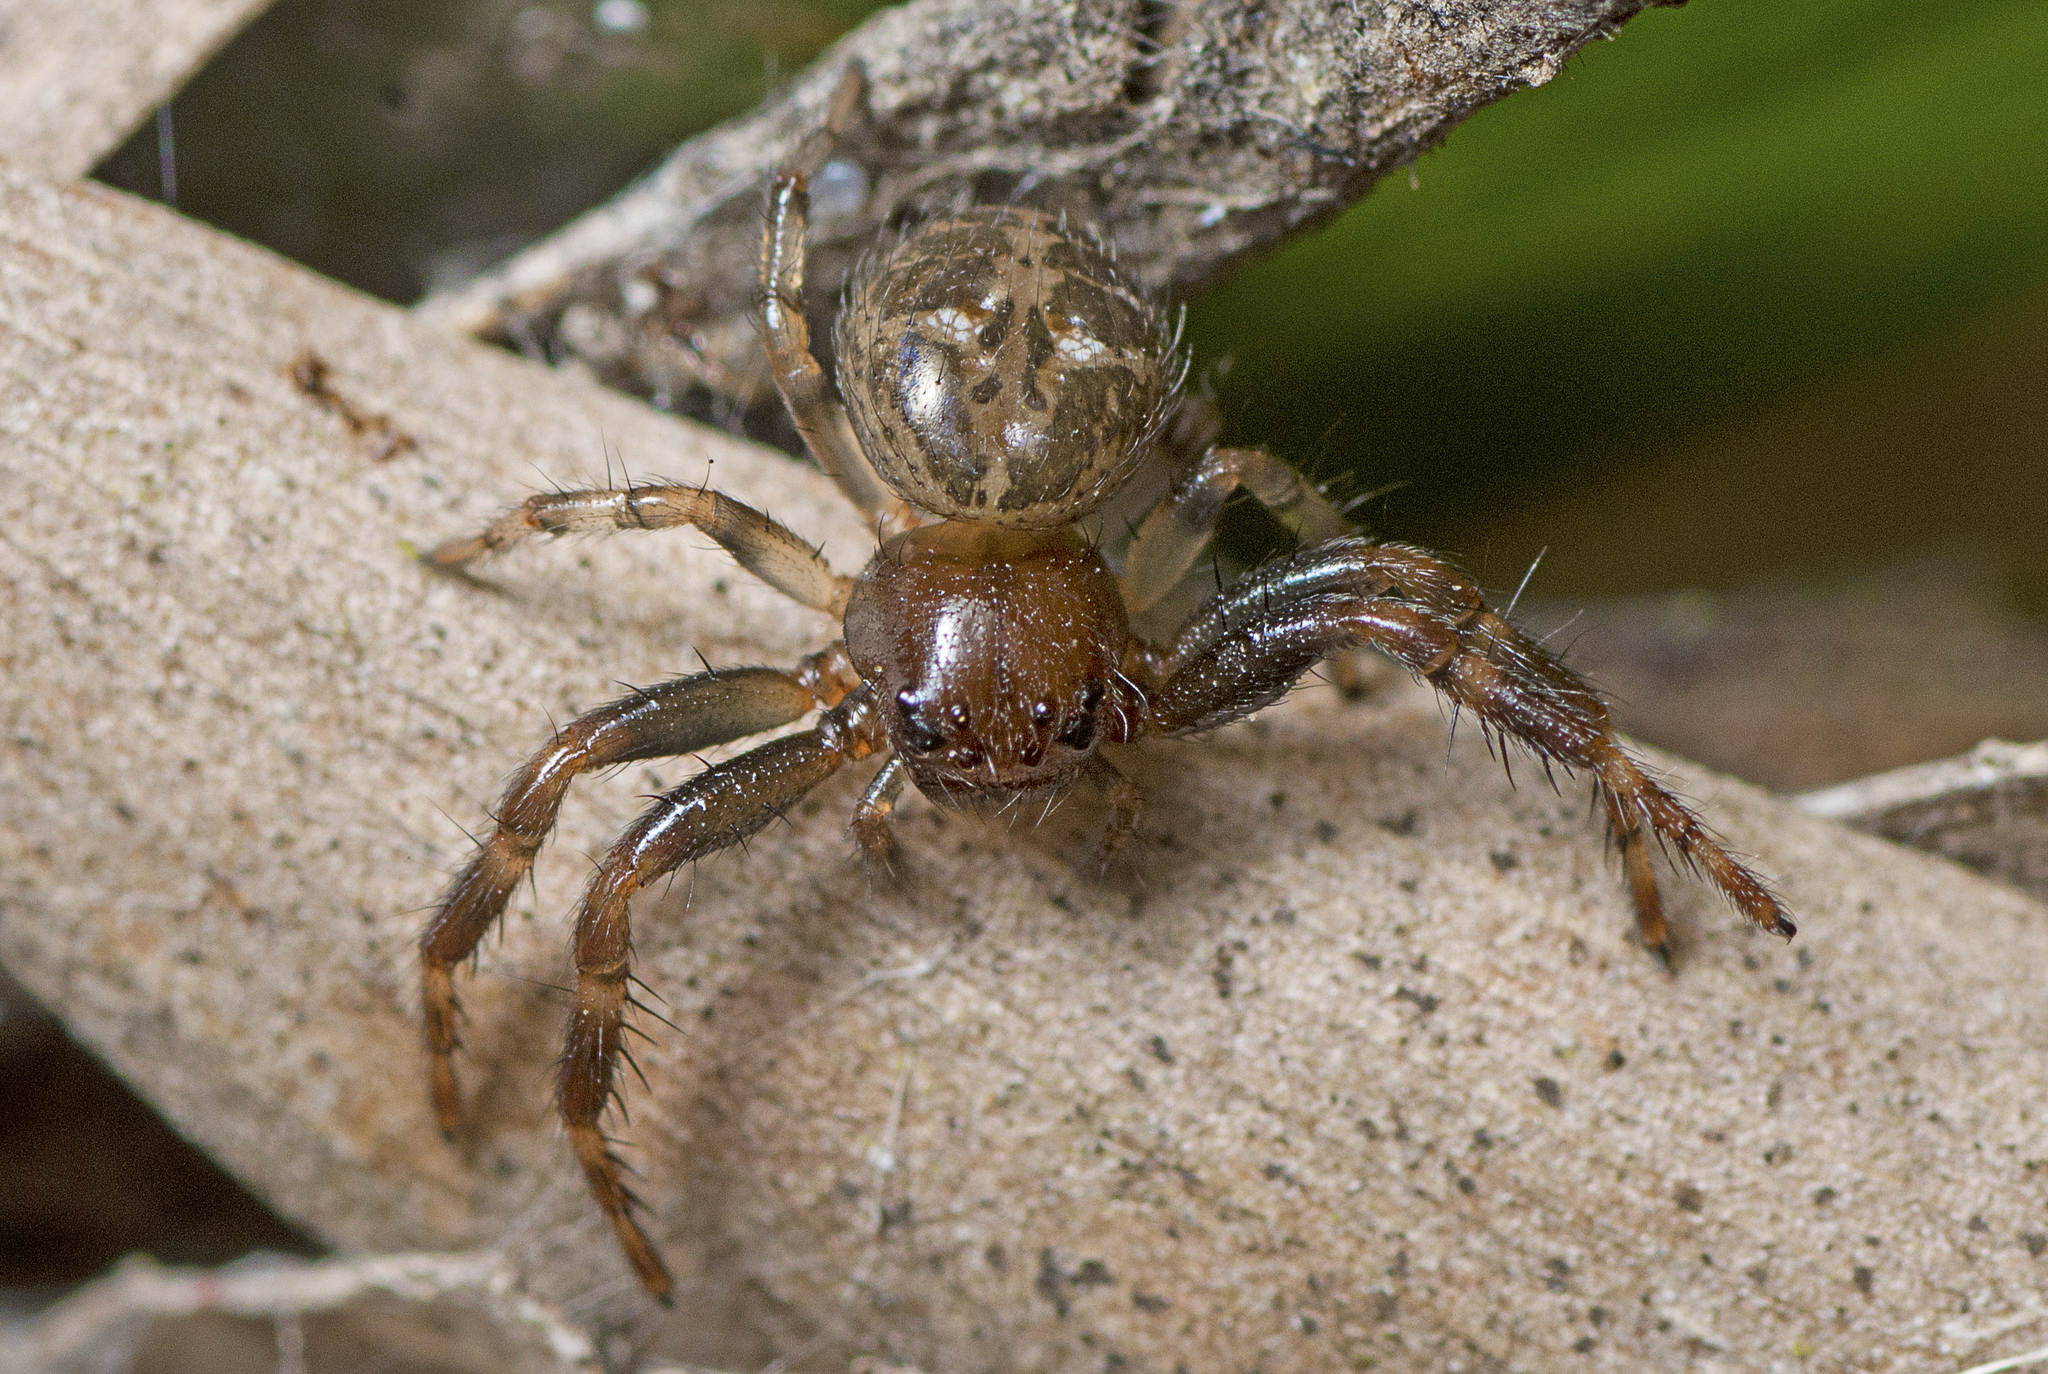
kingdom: Animalia
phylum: Arthropoda
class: Arachnida
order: Araneae
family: Thomisidae
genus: Xysticus
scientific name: Xysticus bimaculatus
